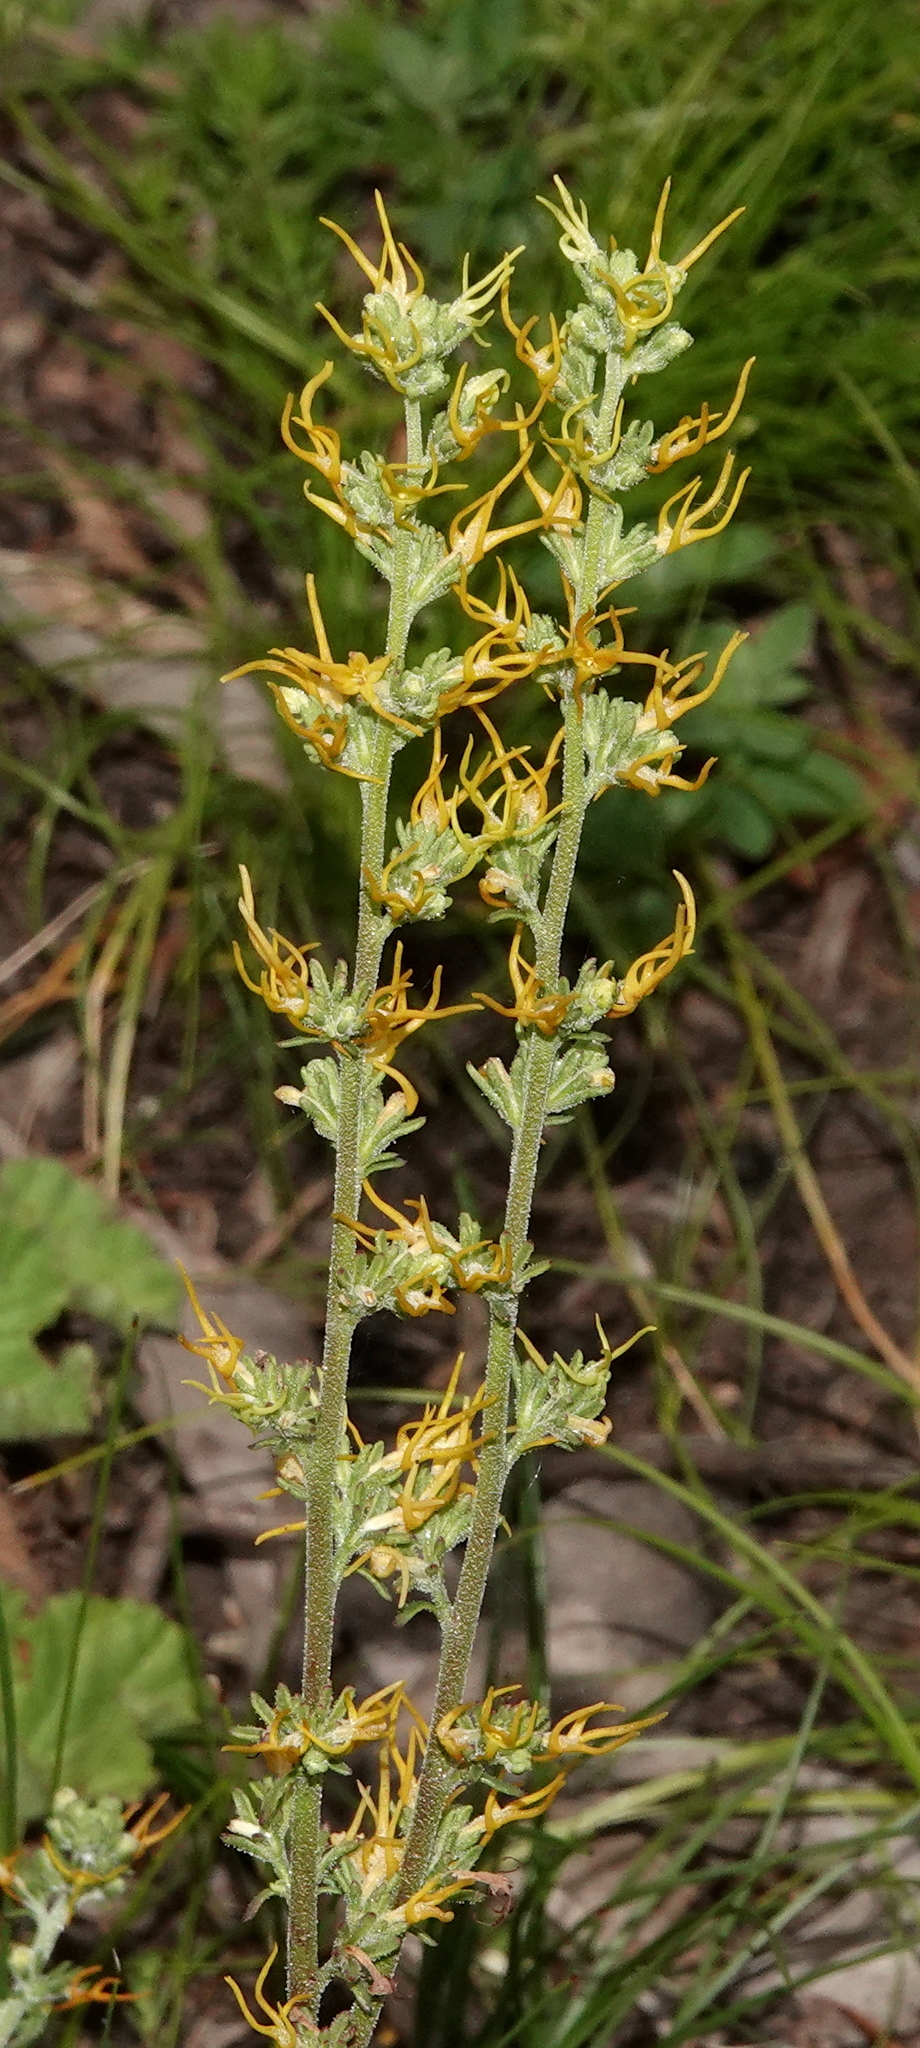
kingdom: Plantae
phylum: Tracheophyta
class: Magnoliopsida
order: Lamiales
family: Scrophulariaceae
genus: Manulea
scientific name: Manulea cheiranthus
